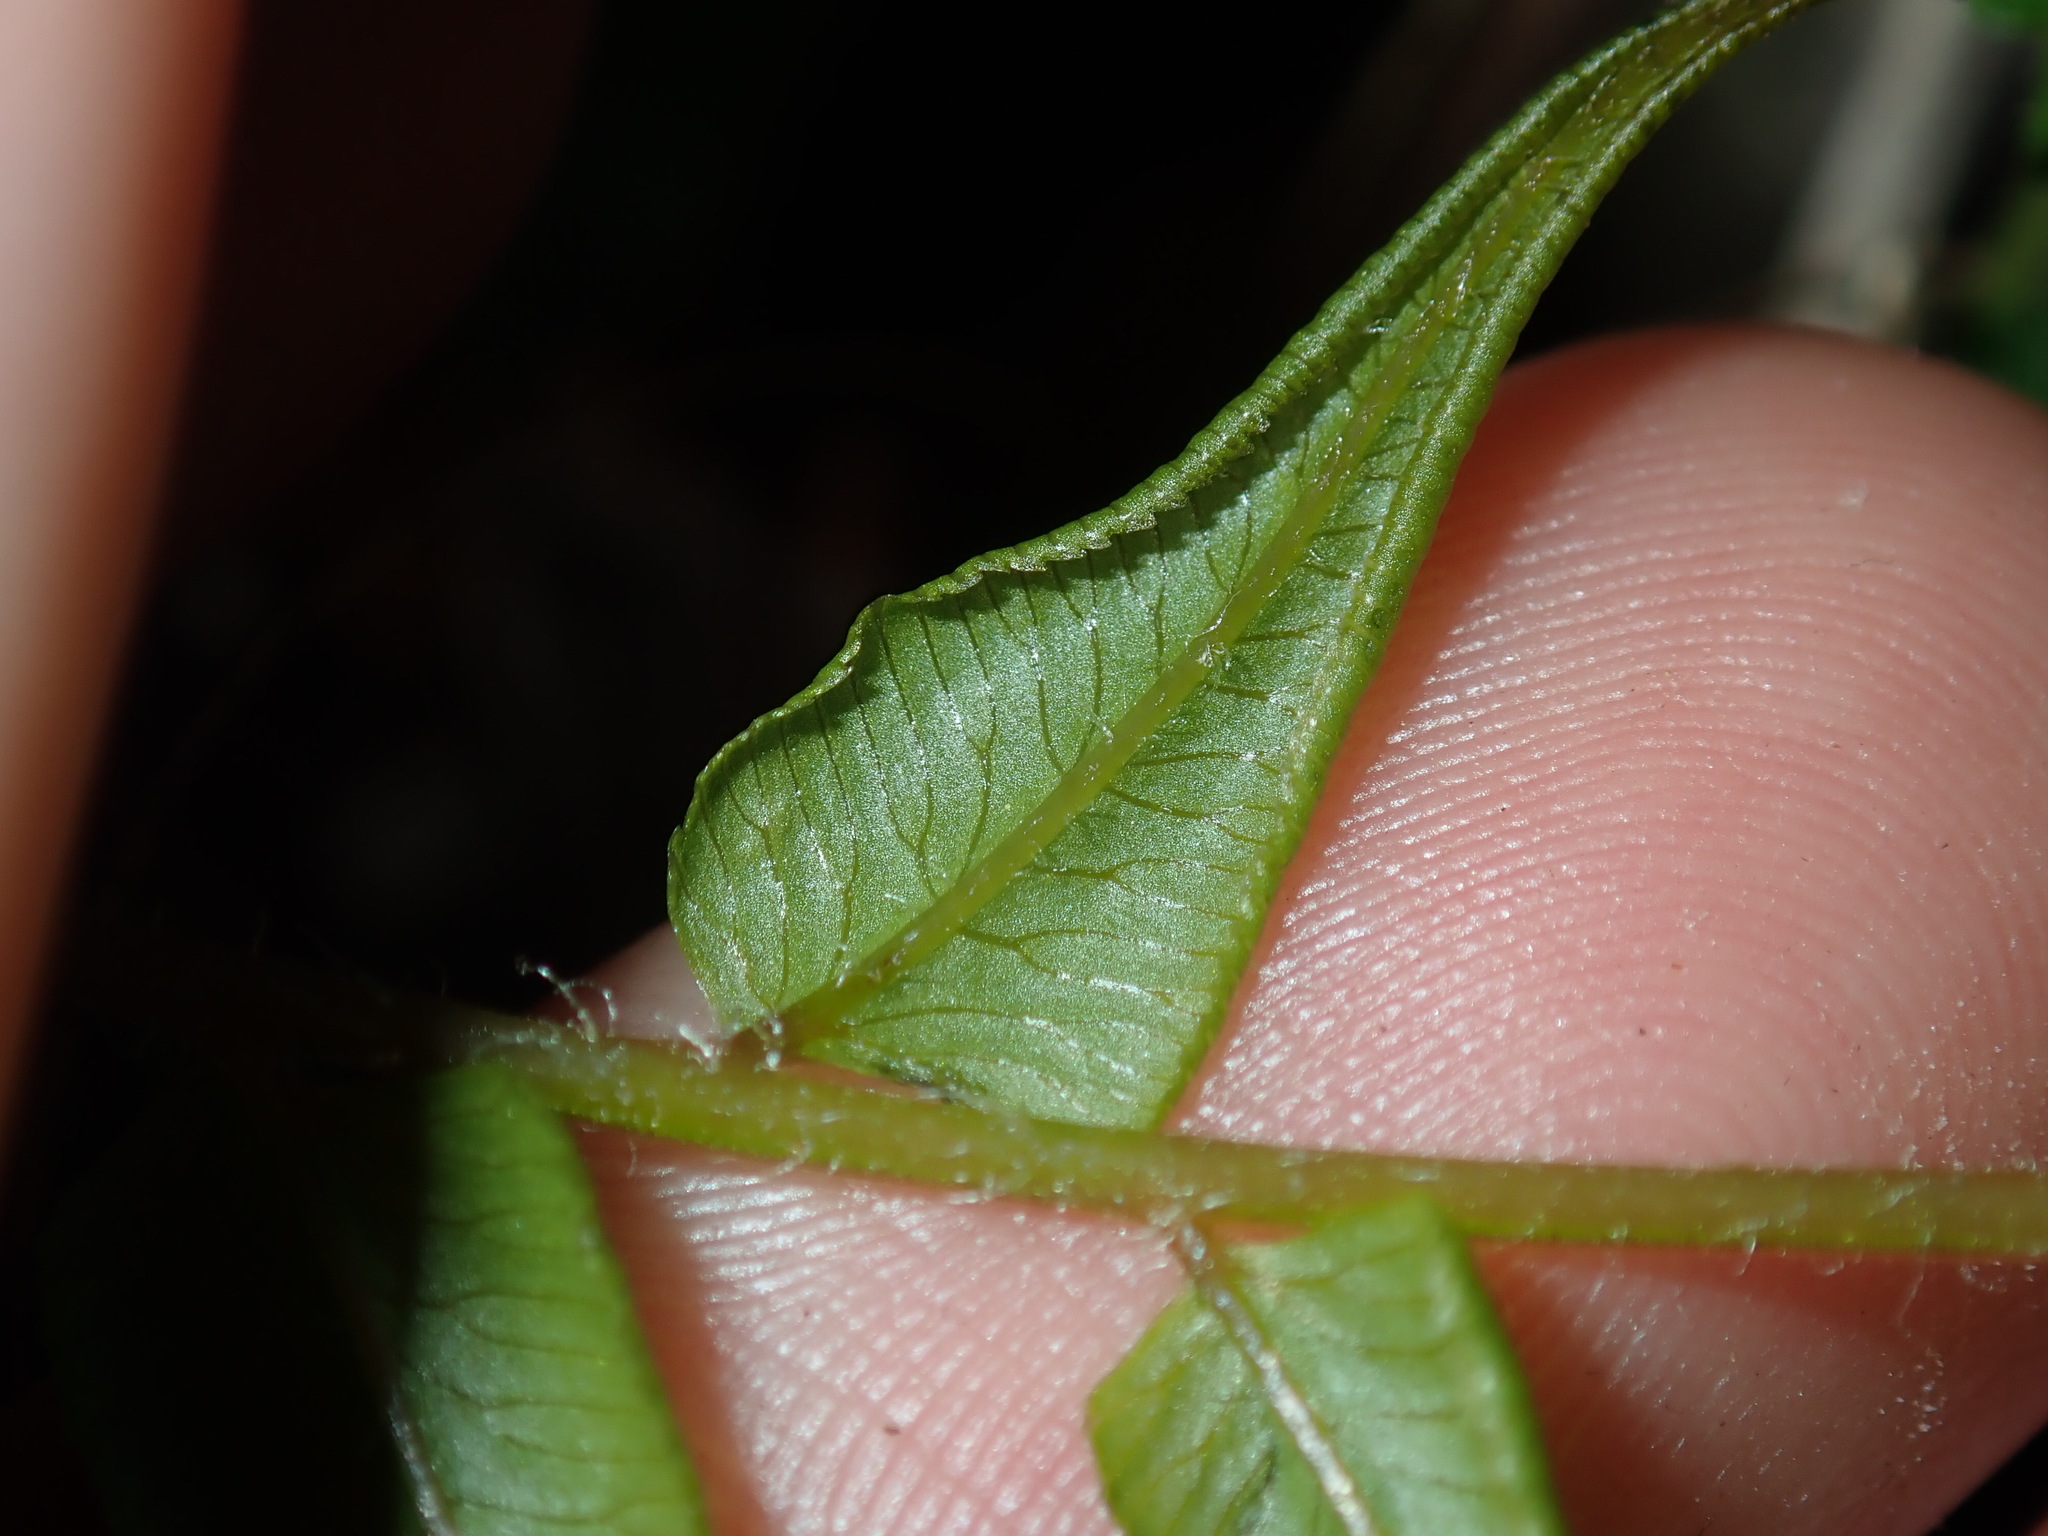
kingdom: Plantae
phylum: Tracheophyta
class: Polypodiopsida
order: Polypodiales
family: Pteridaceae
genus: Pteris
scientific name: Pteris vittata
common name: Ladder brake
